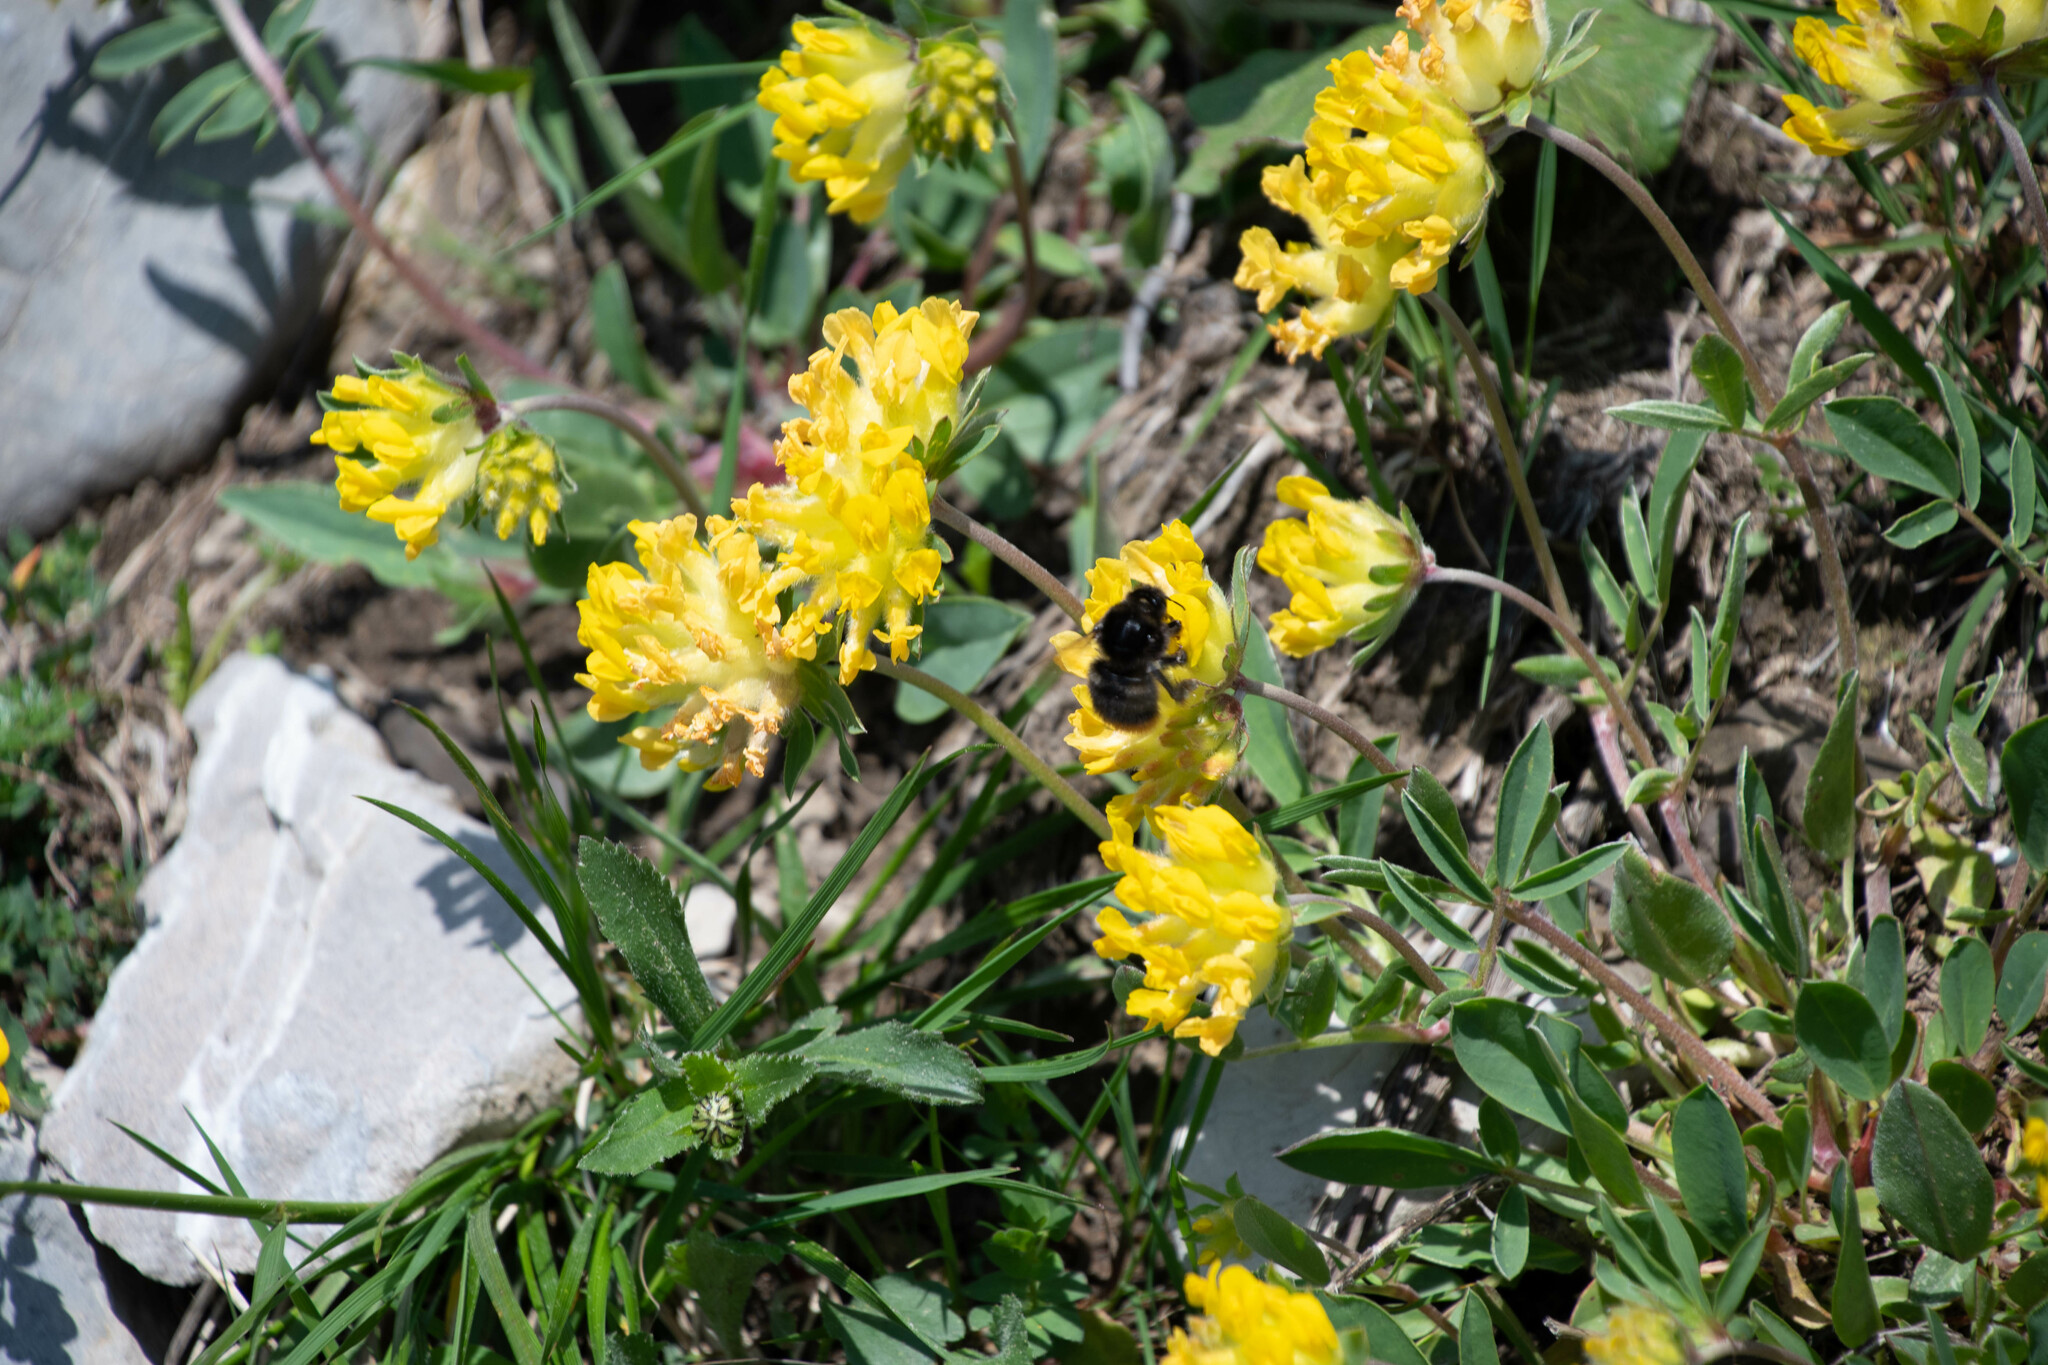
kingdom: Plantae
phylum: Tracheophyta
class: Magnoliopsida
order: Fabales
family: Fabaceae
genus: Anthyllis
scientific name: Anthyllis vulneraria
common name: Kidney vetch
